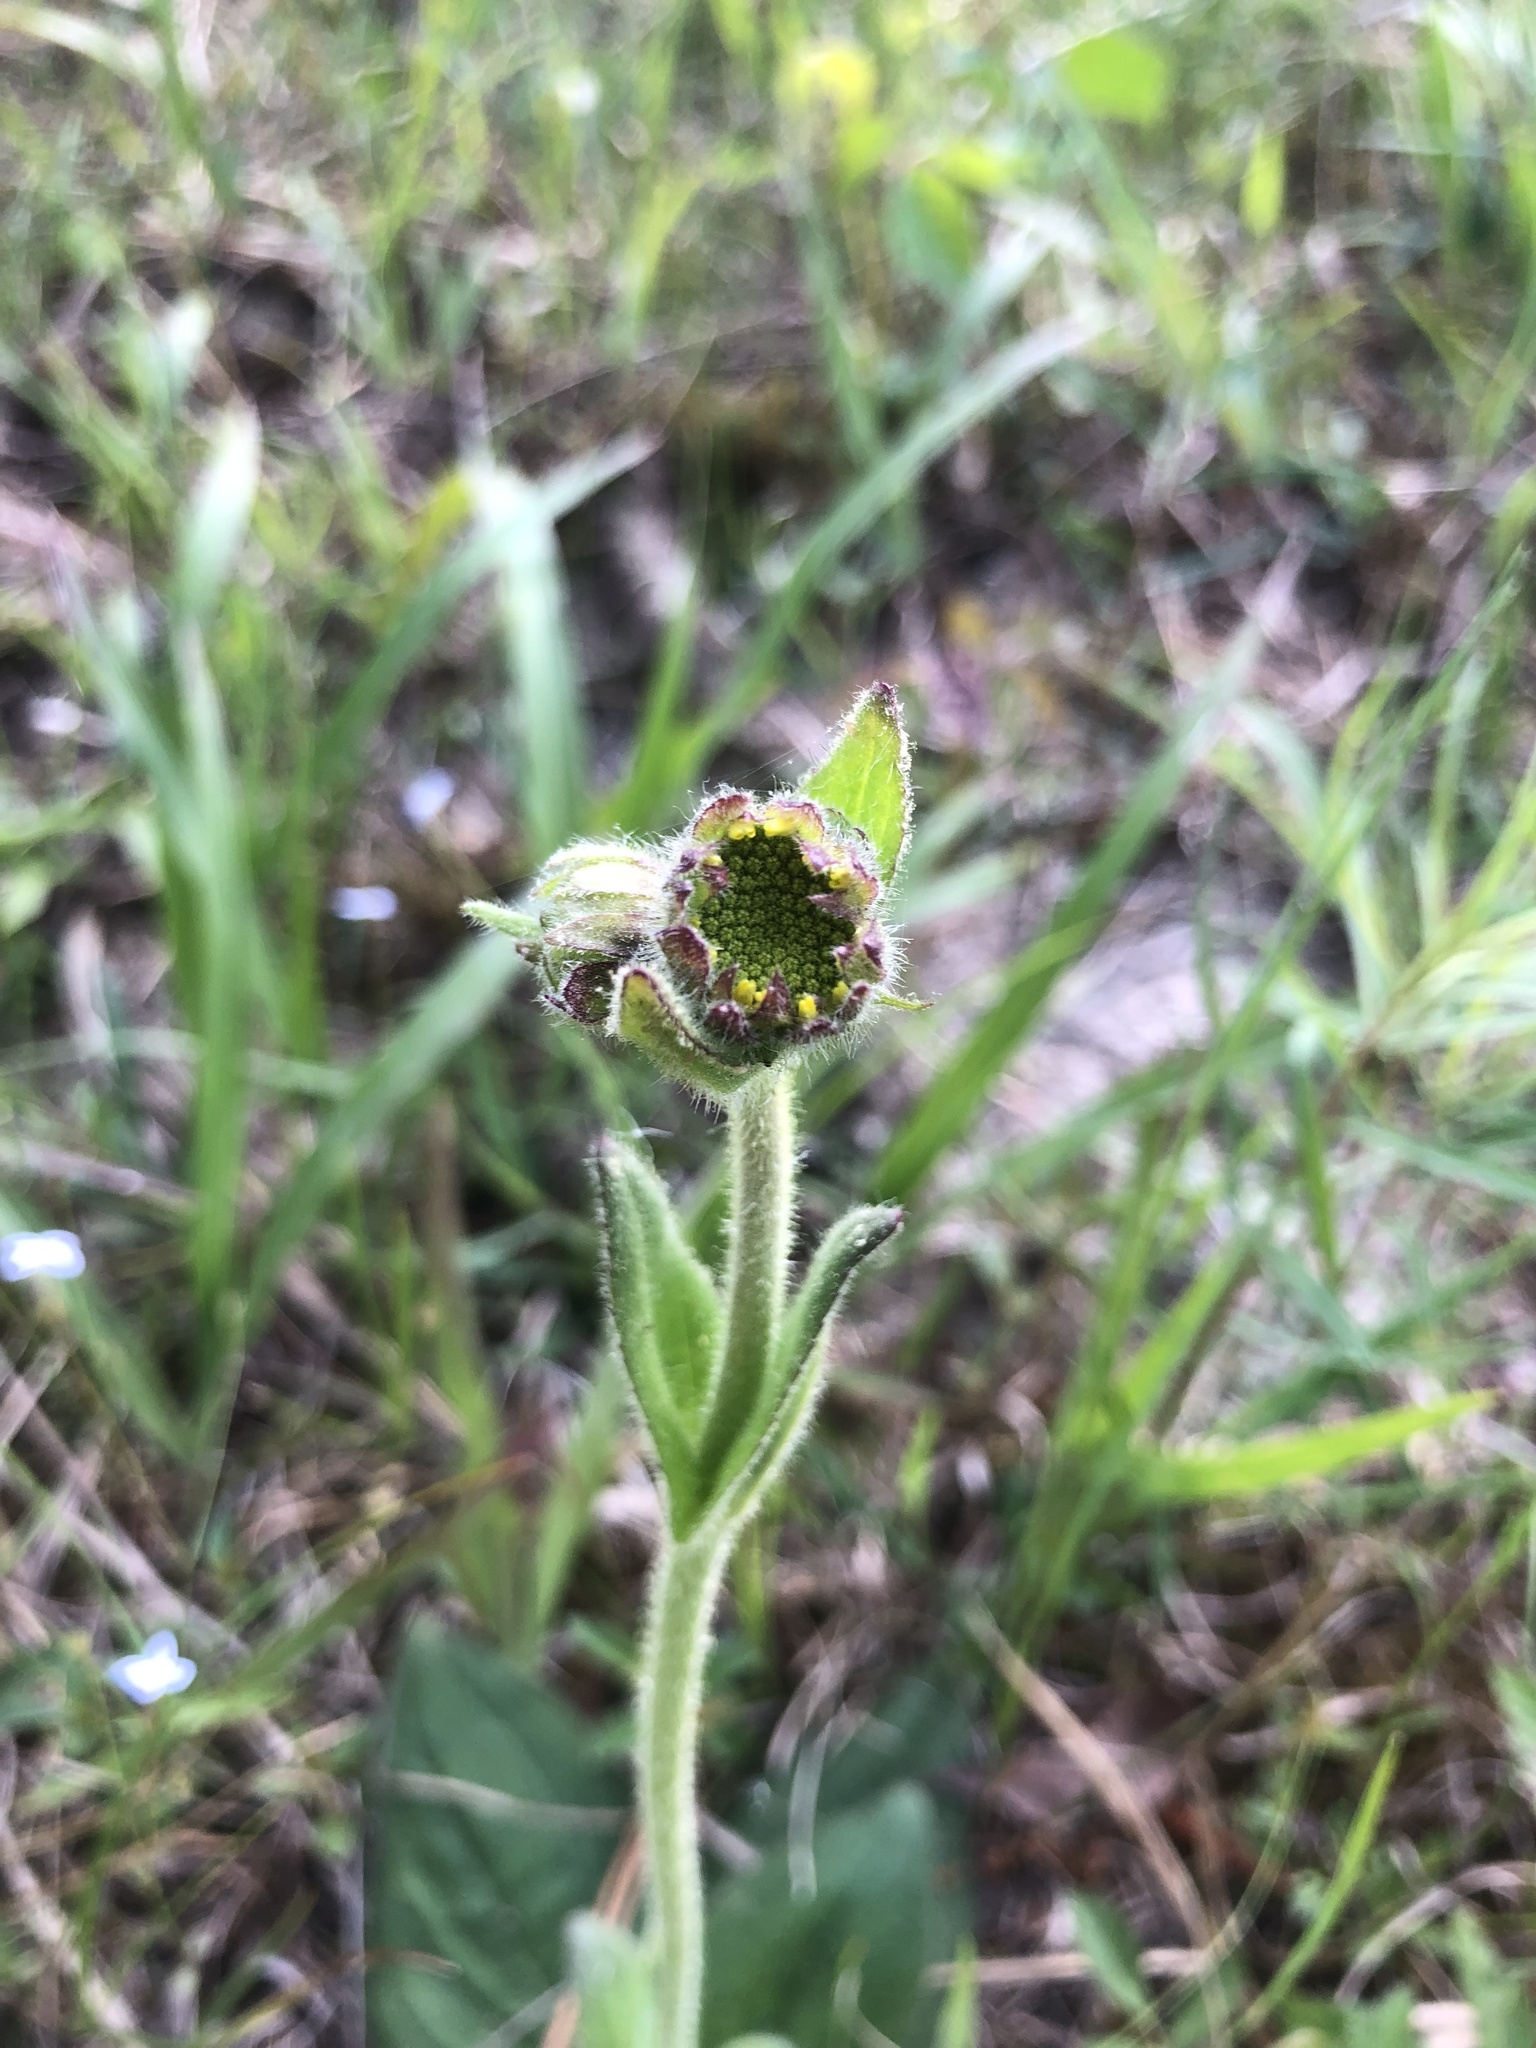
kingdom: Plantae
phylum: Tracheophyta
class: Magnoliopsida
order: Asterales
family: Asteraceae
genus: Arnica
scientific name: Arnica acaulis
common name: Common leopardbane
